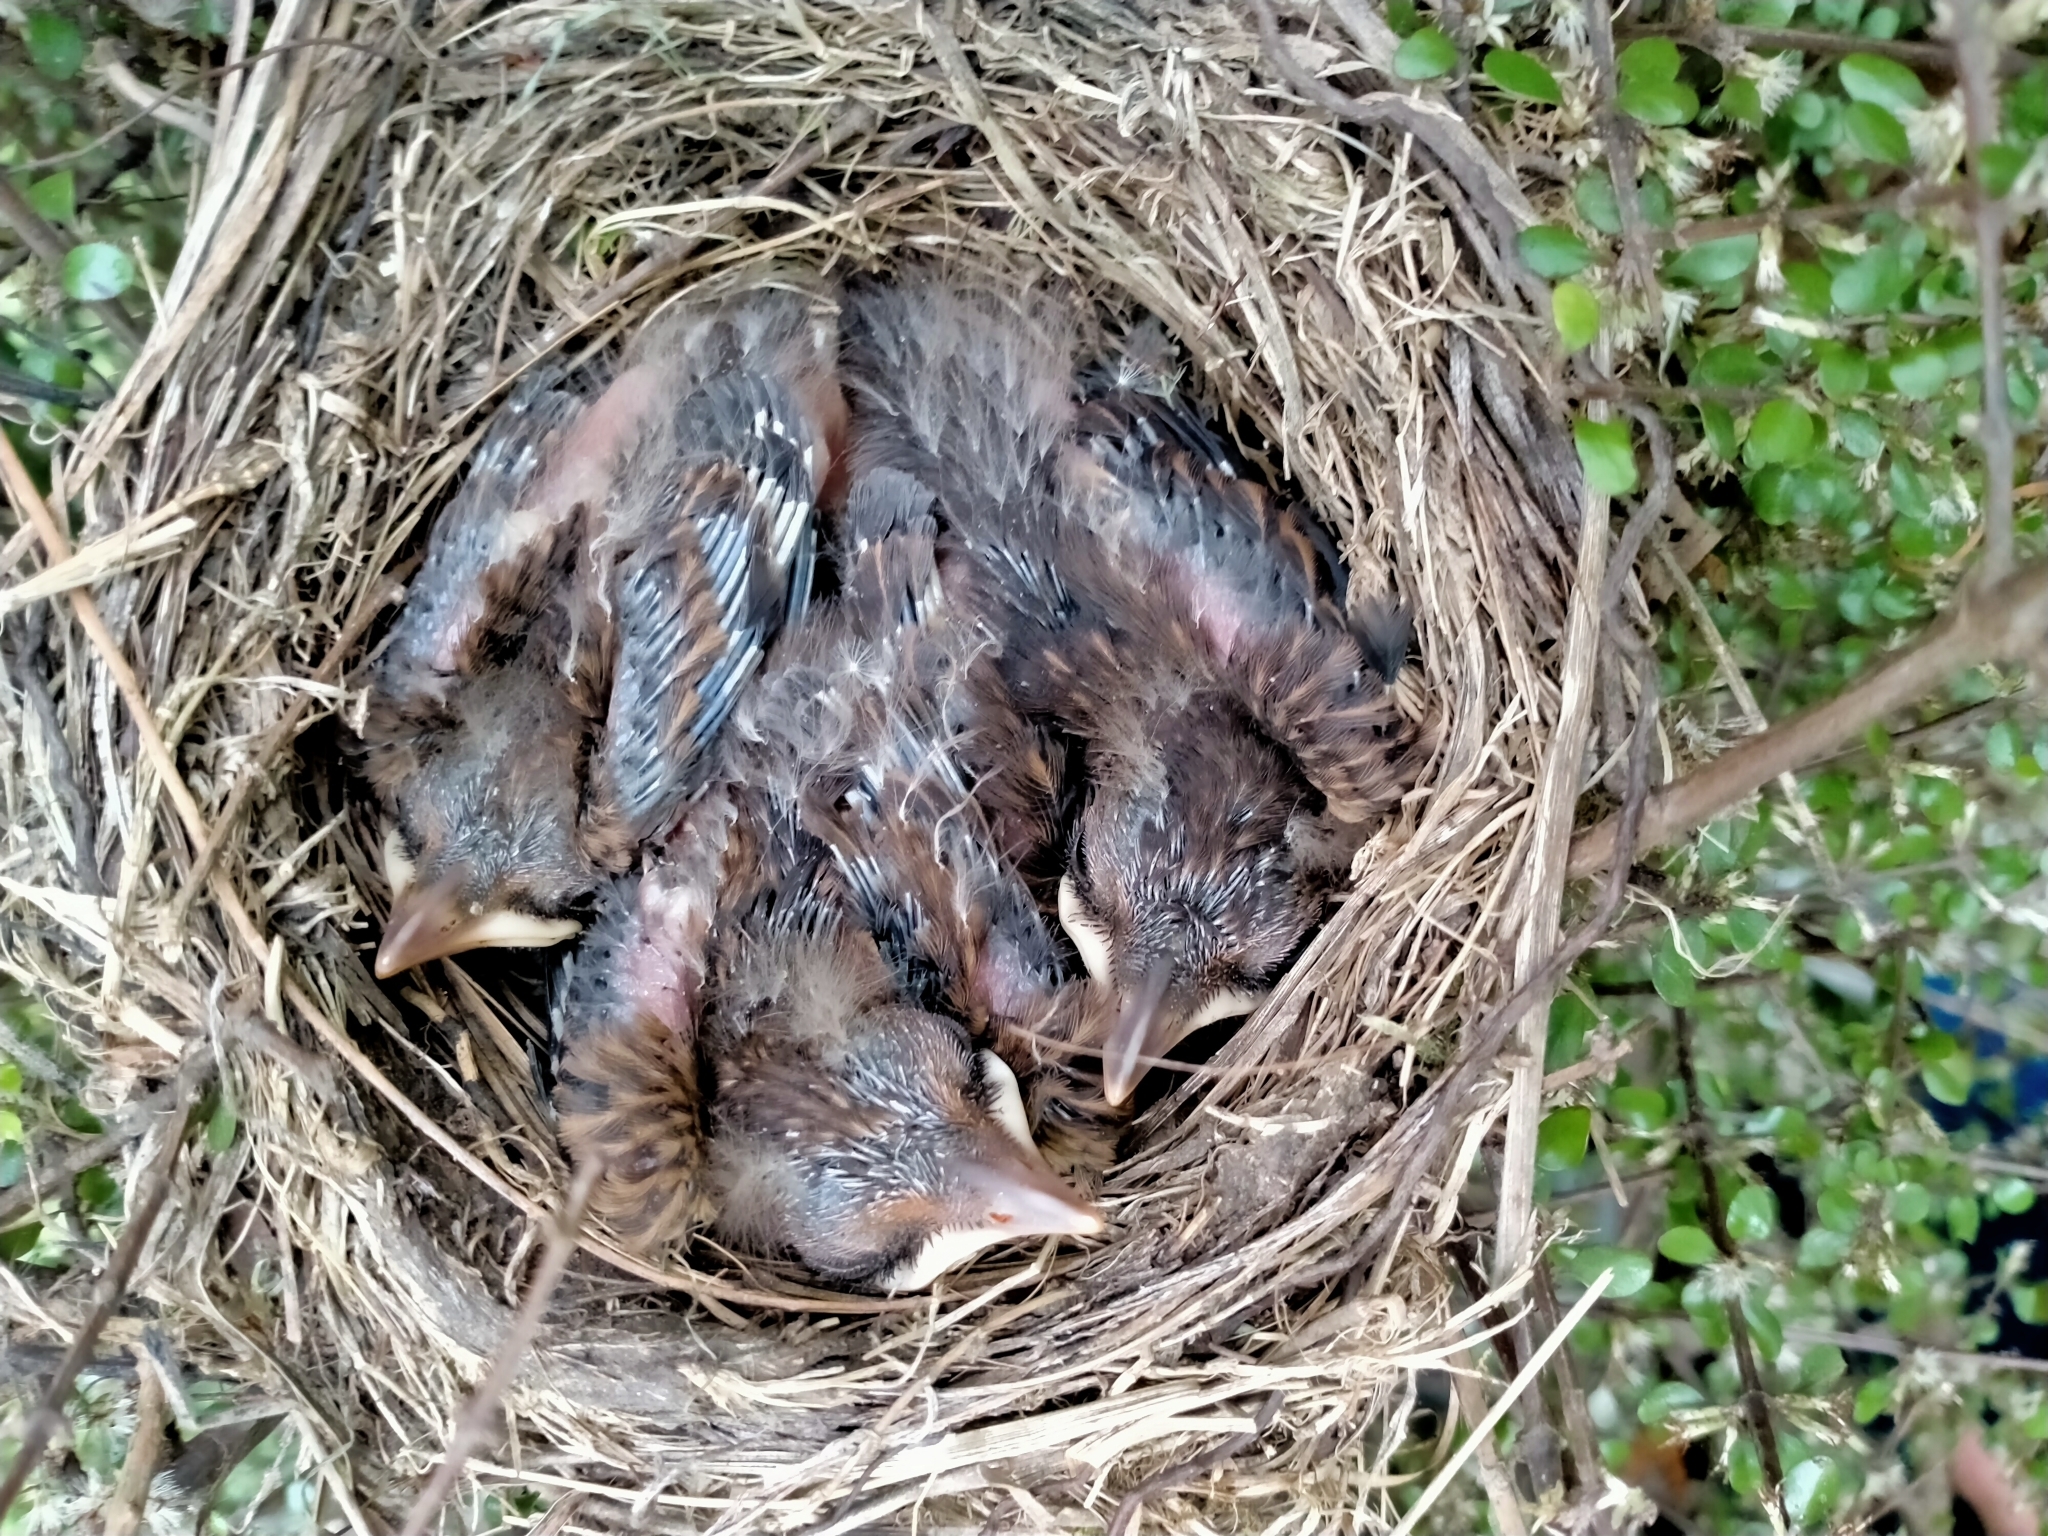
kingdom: Animalia
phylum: Chordata
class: Aves
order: Passeriformes
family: Turdidae
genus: Turdus
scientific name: Turdus merula
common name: Common blackbird
